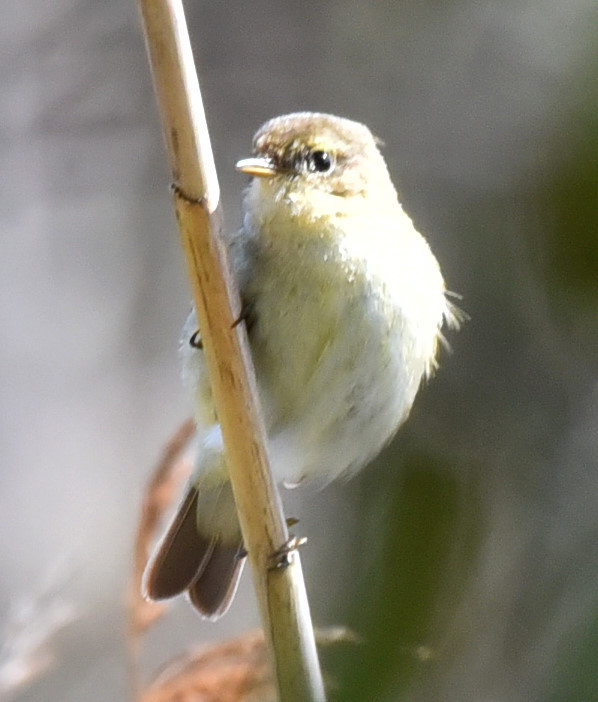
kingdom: Animalia
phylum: Chordata
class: Aves
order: Passeriformes
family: Phylloscopidae
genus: Phylloscopus
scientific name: Phylloscopus collybita
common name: Common chiffchaff
